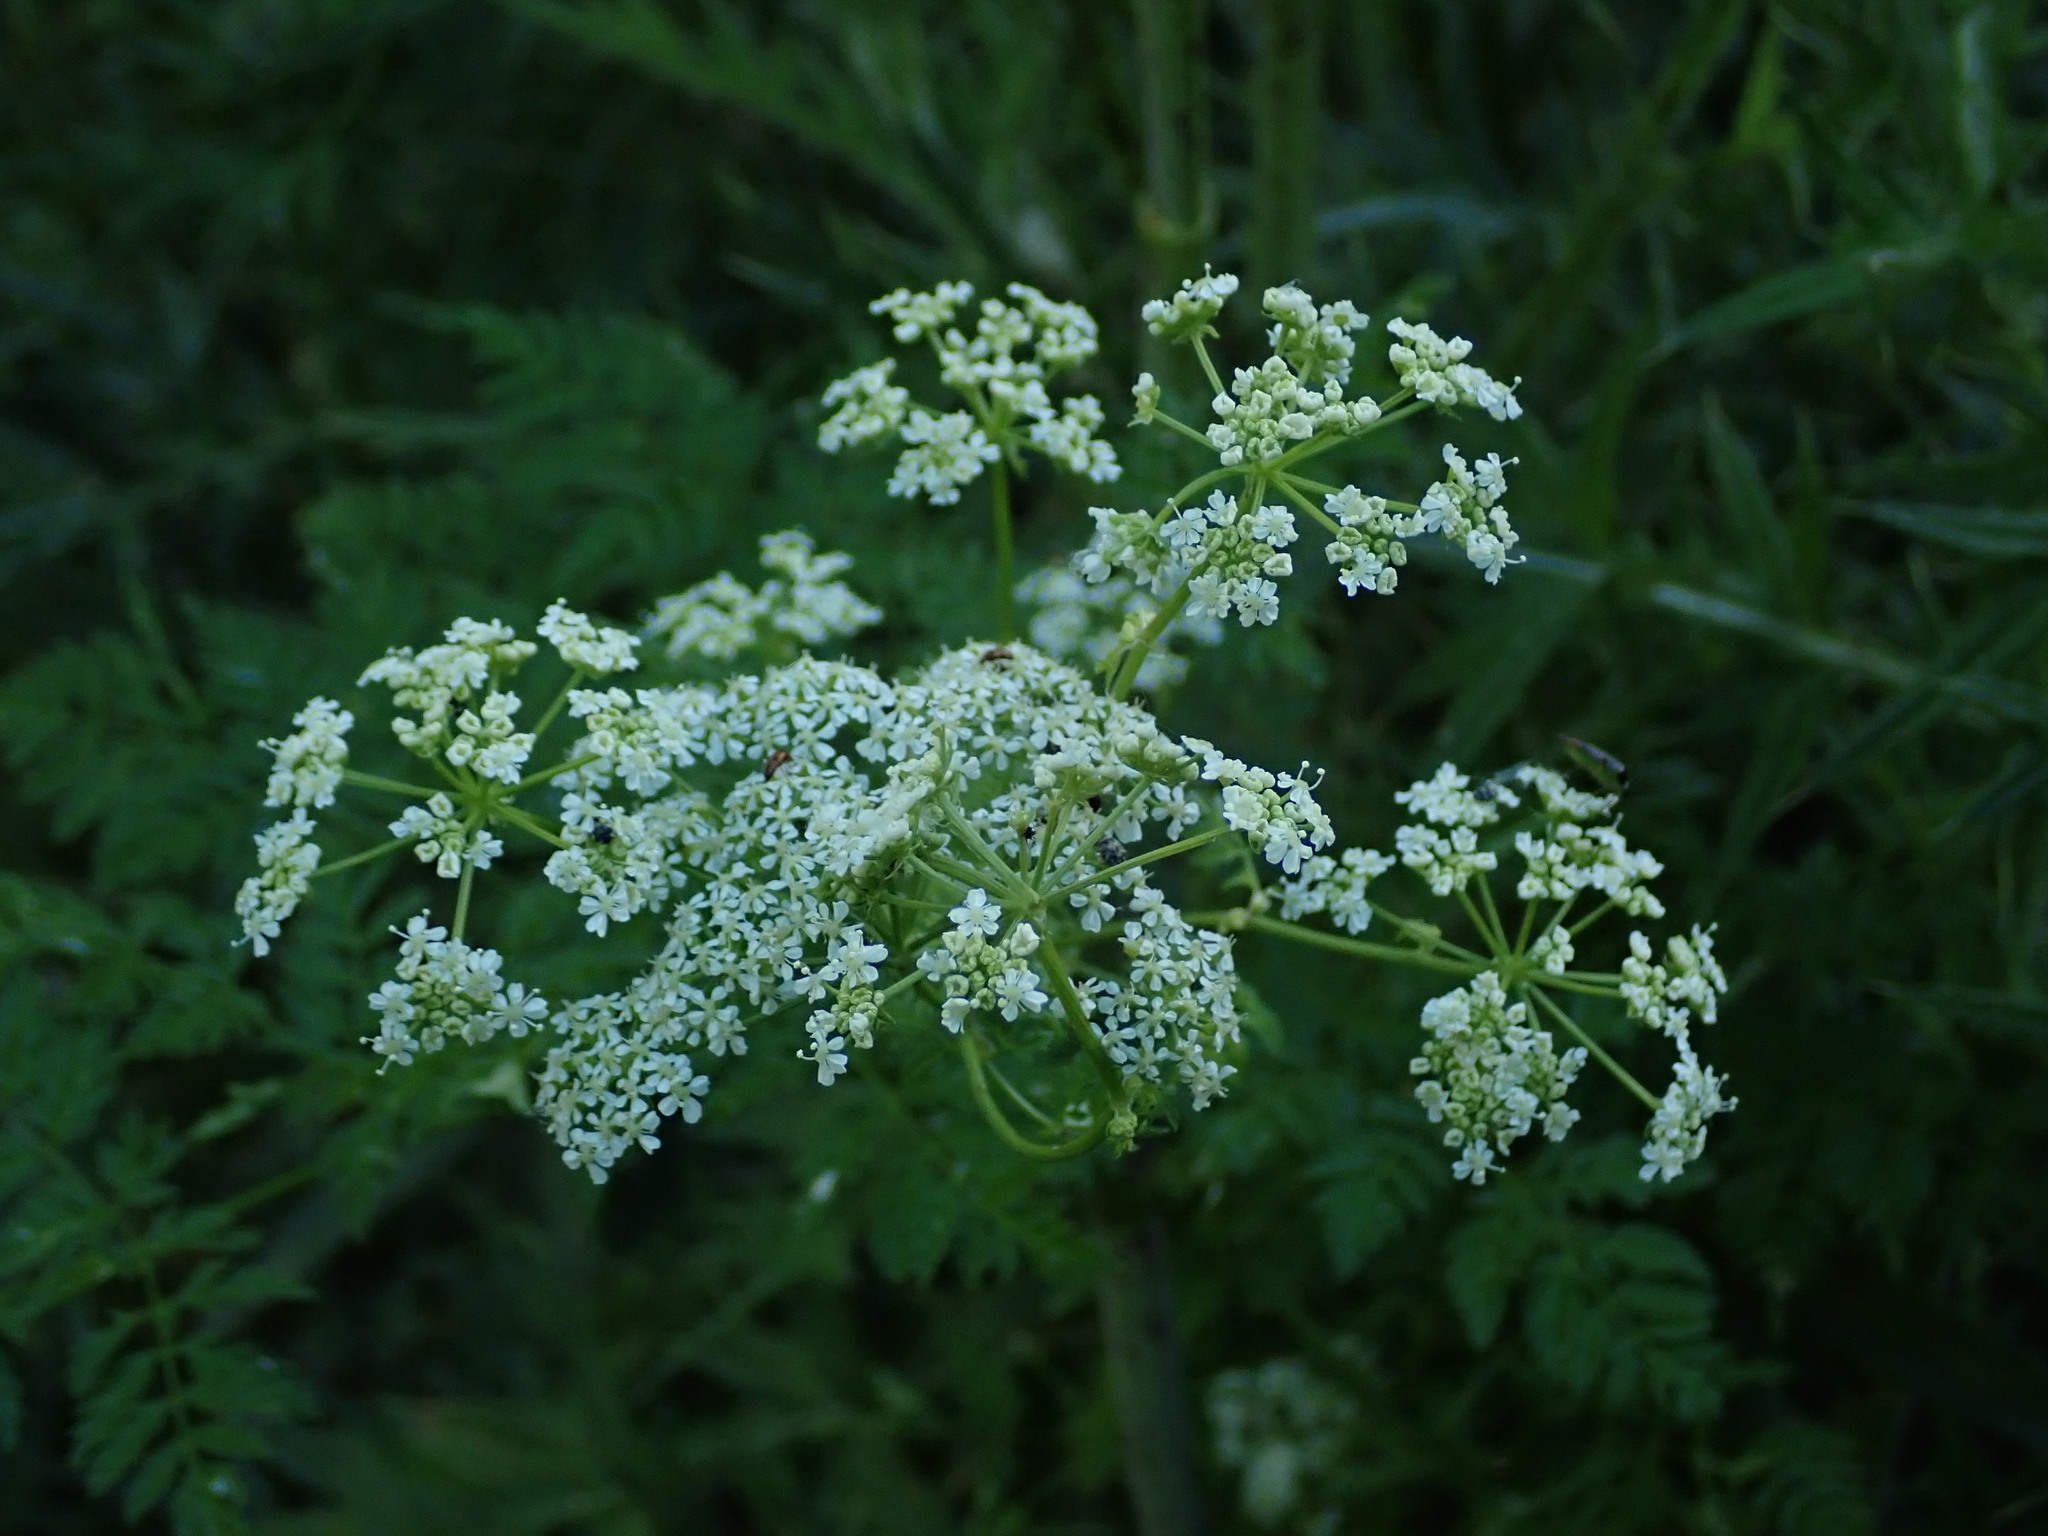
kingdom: Plantae
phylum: Tracheophyta
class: Magnoliopsida
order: Apiales
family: Apiaceae
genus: Conium
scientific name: Conium maculatum
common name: Hemlock
